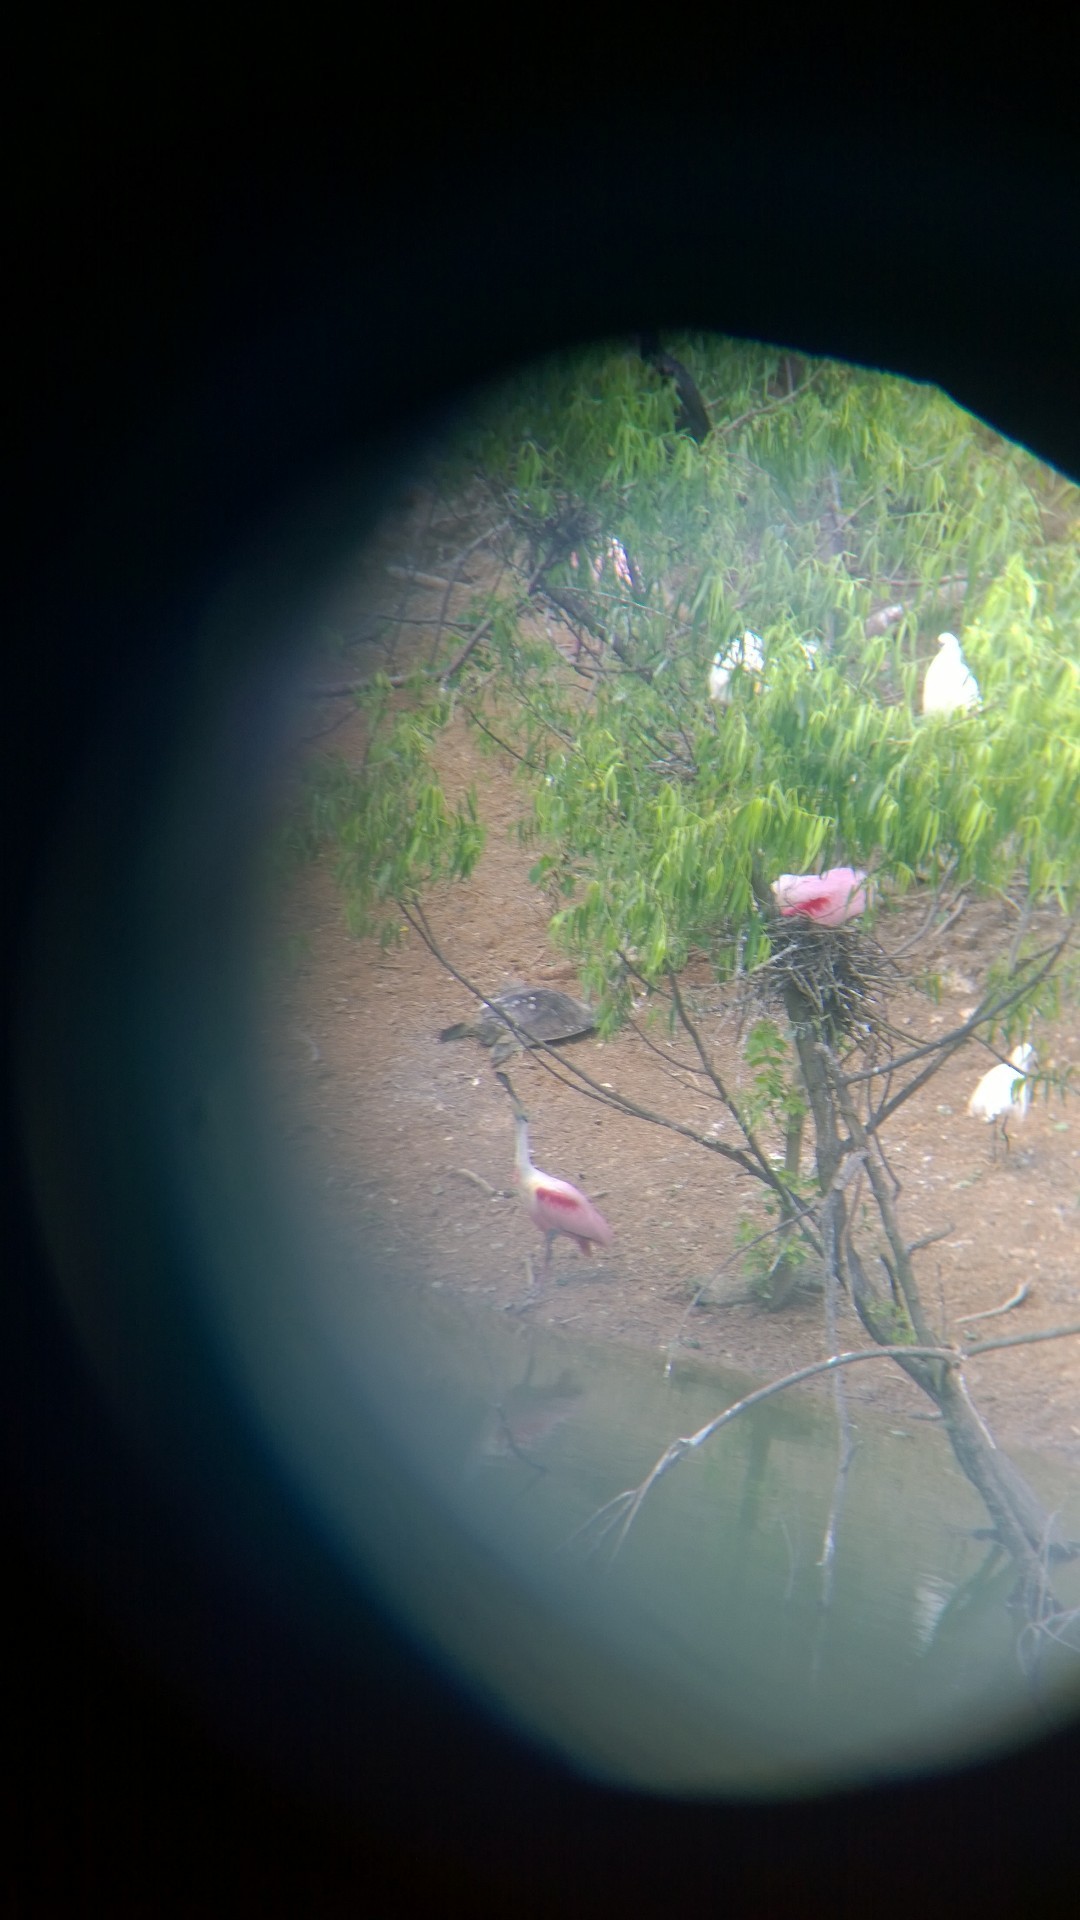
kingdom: Animalia
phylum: Chordata
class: Testudines
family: Trionychidae
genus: Apalone
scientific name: Apalone spinifera
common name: Spiny softshell turtle
